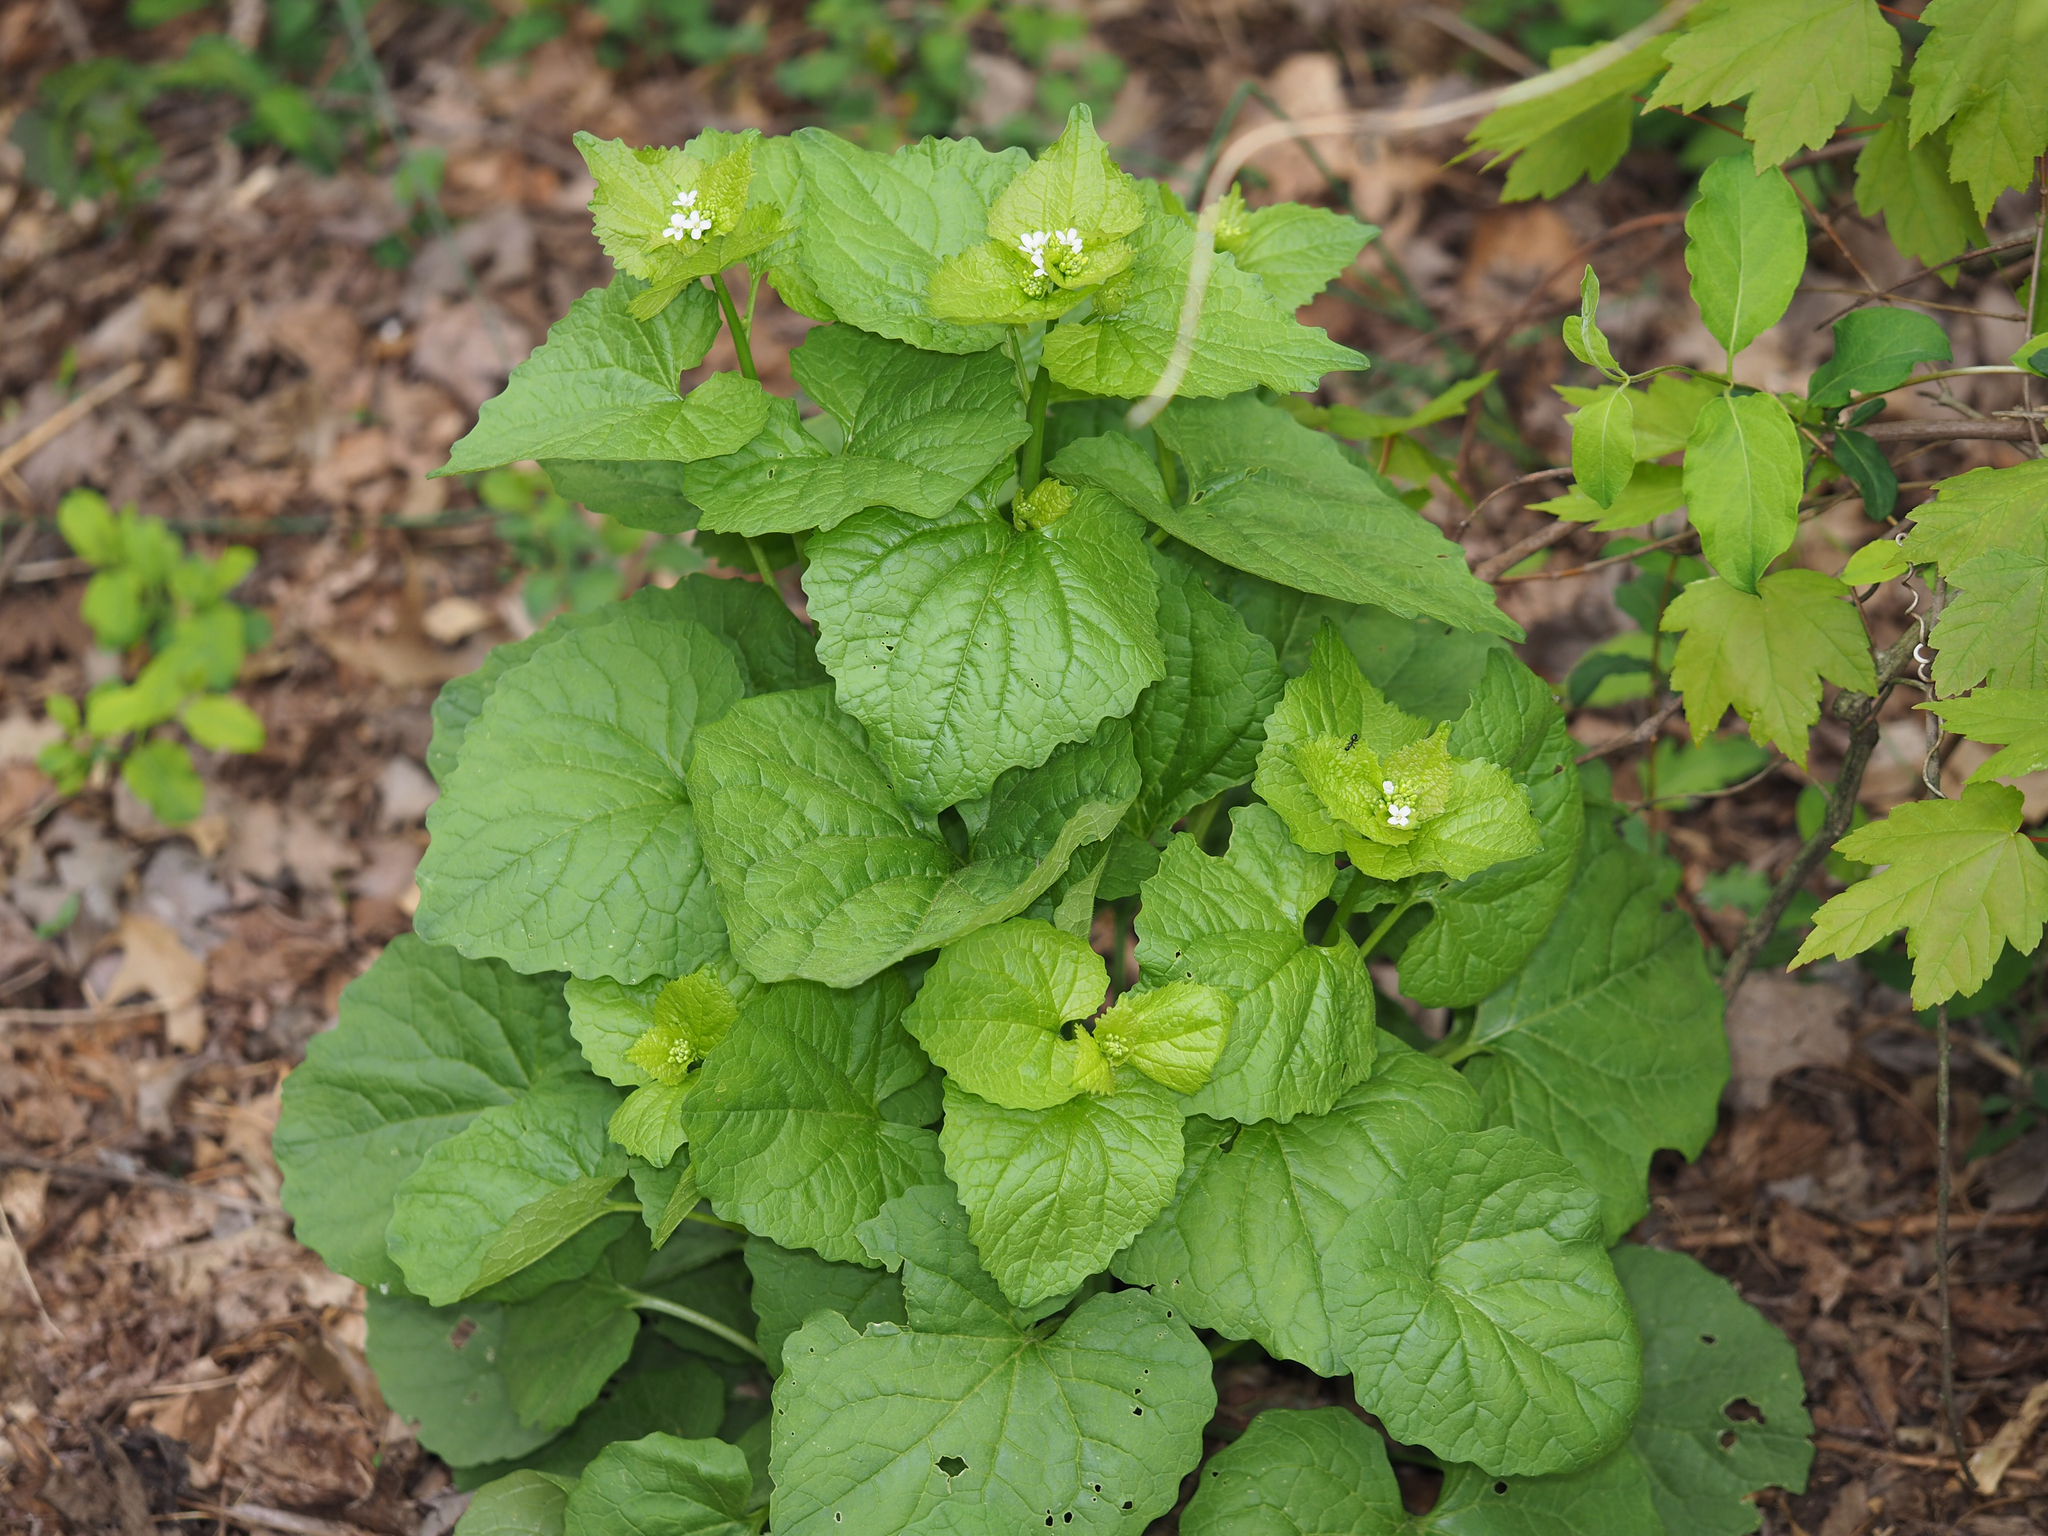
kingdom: Plantae
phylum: Tracheophyta
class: Magnoliopsida
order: Brassicales
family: Brassicaceae
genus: Alliaria
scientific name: Alliaria petiolata
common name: Garlic mustard
